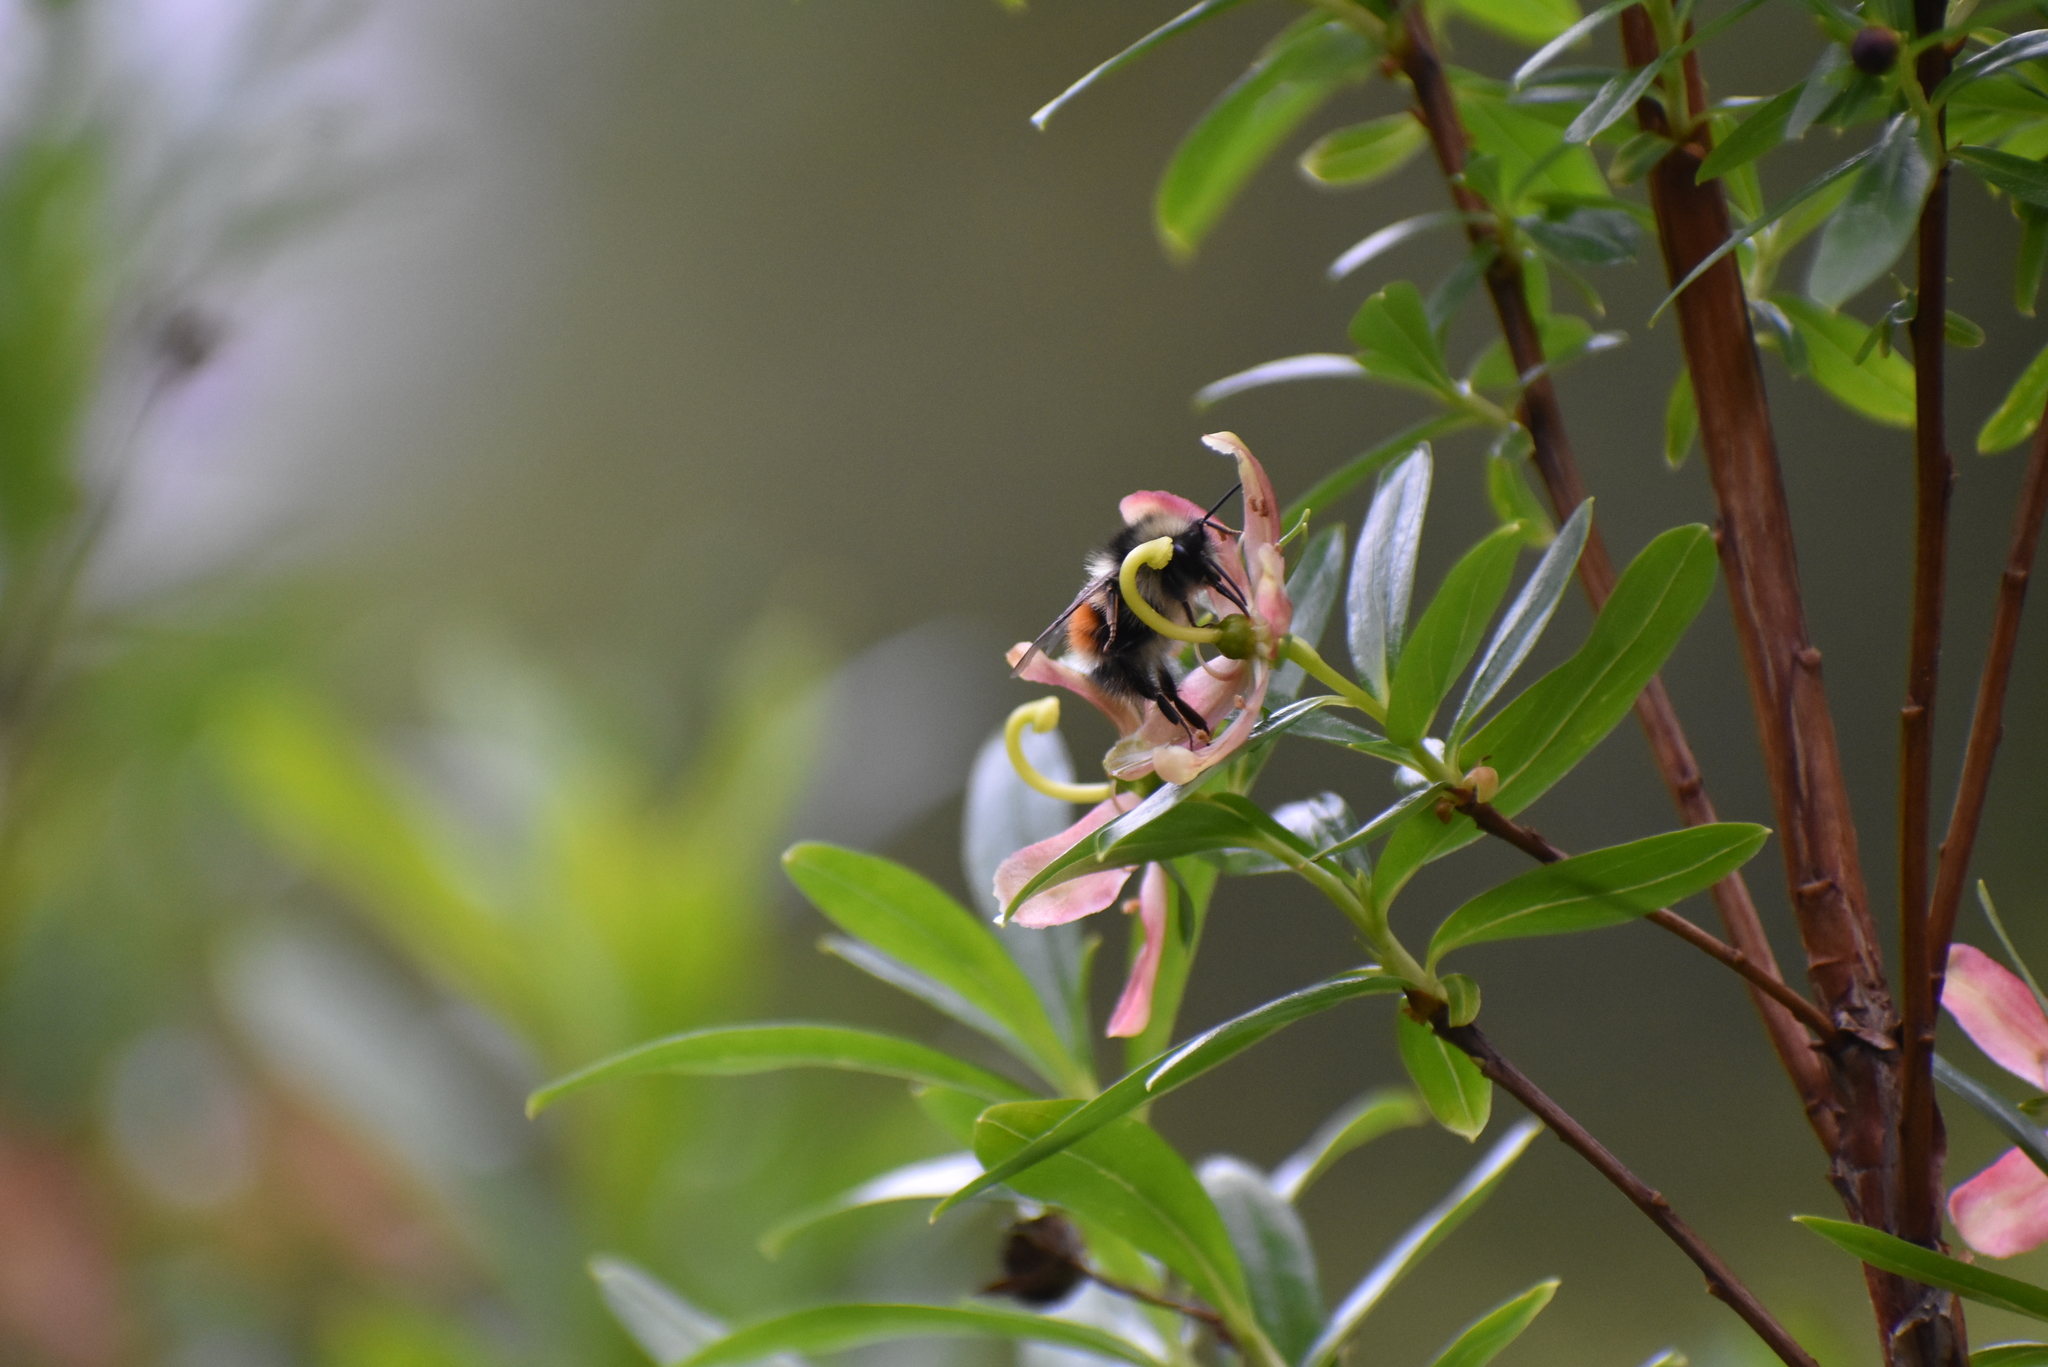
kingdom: Animalia
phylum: Arthropoda
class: Insecta
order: Hymenoptera
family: Apidae
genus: Bombus
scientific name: Bombus melanopygus
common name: Black tail bumble bee
